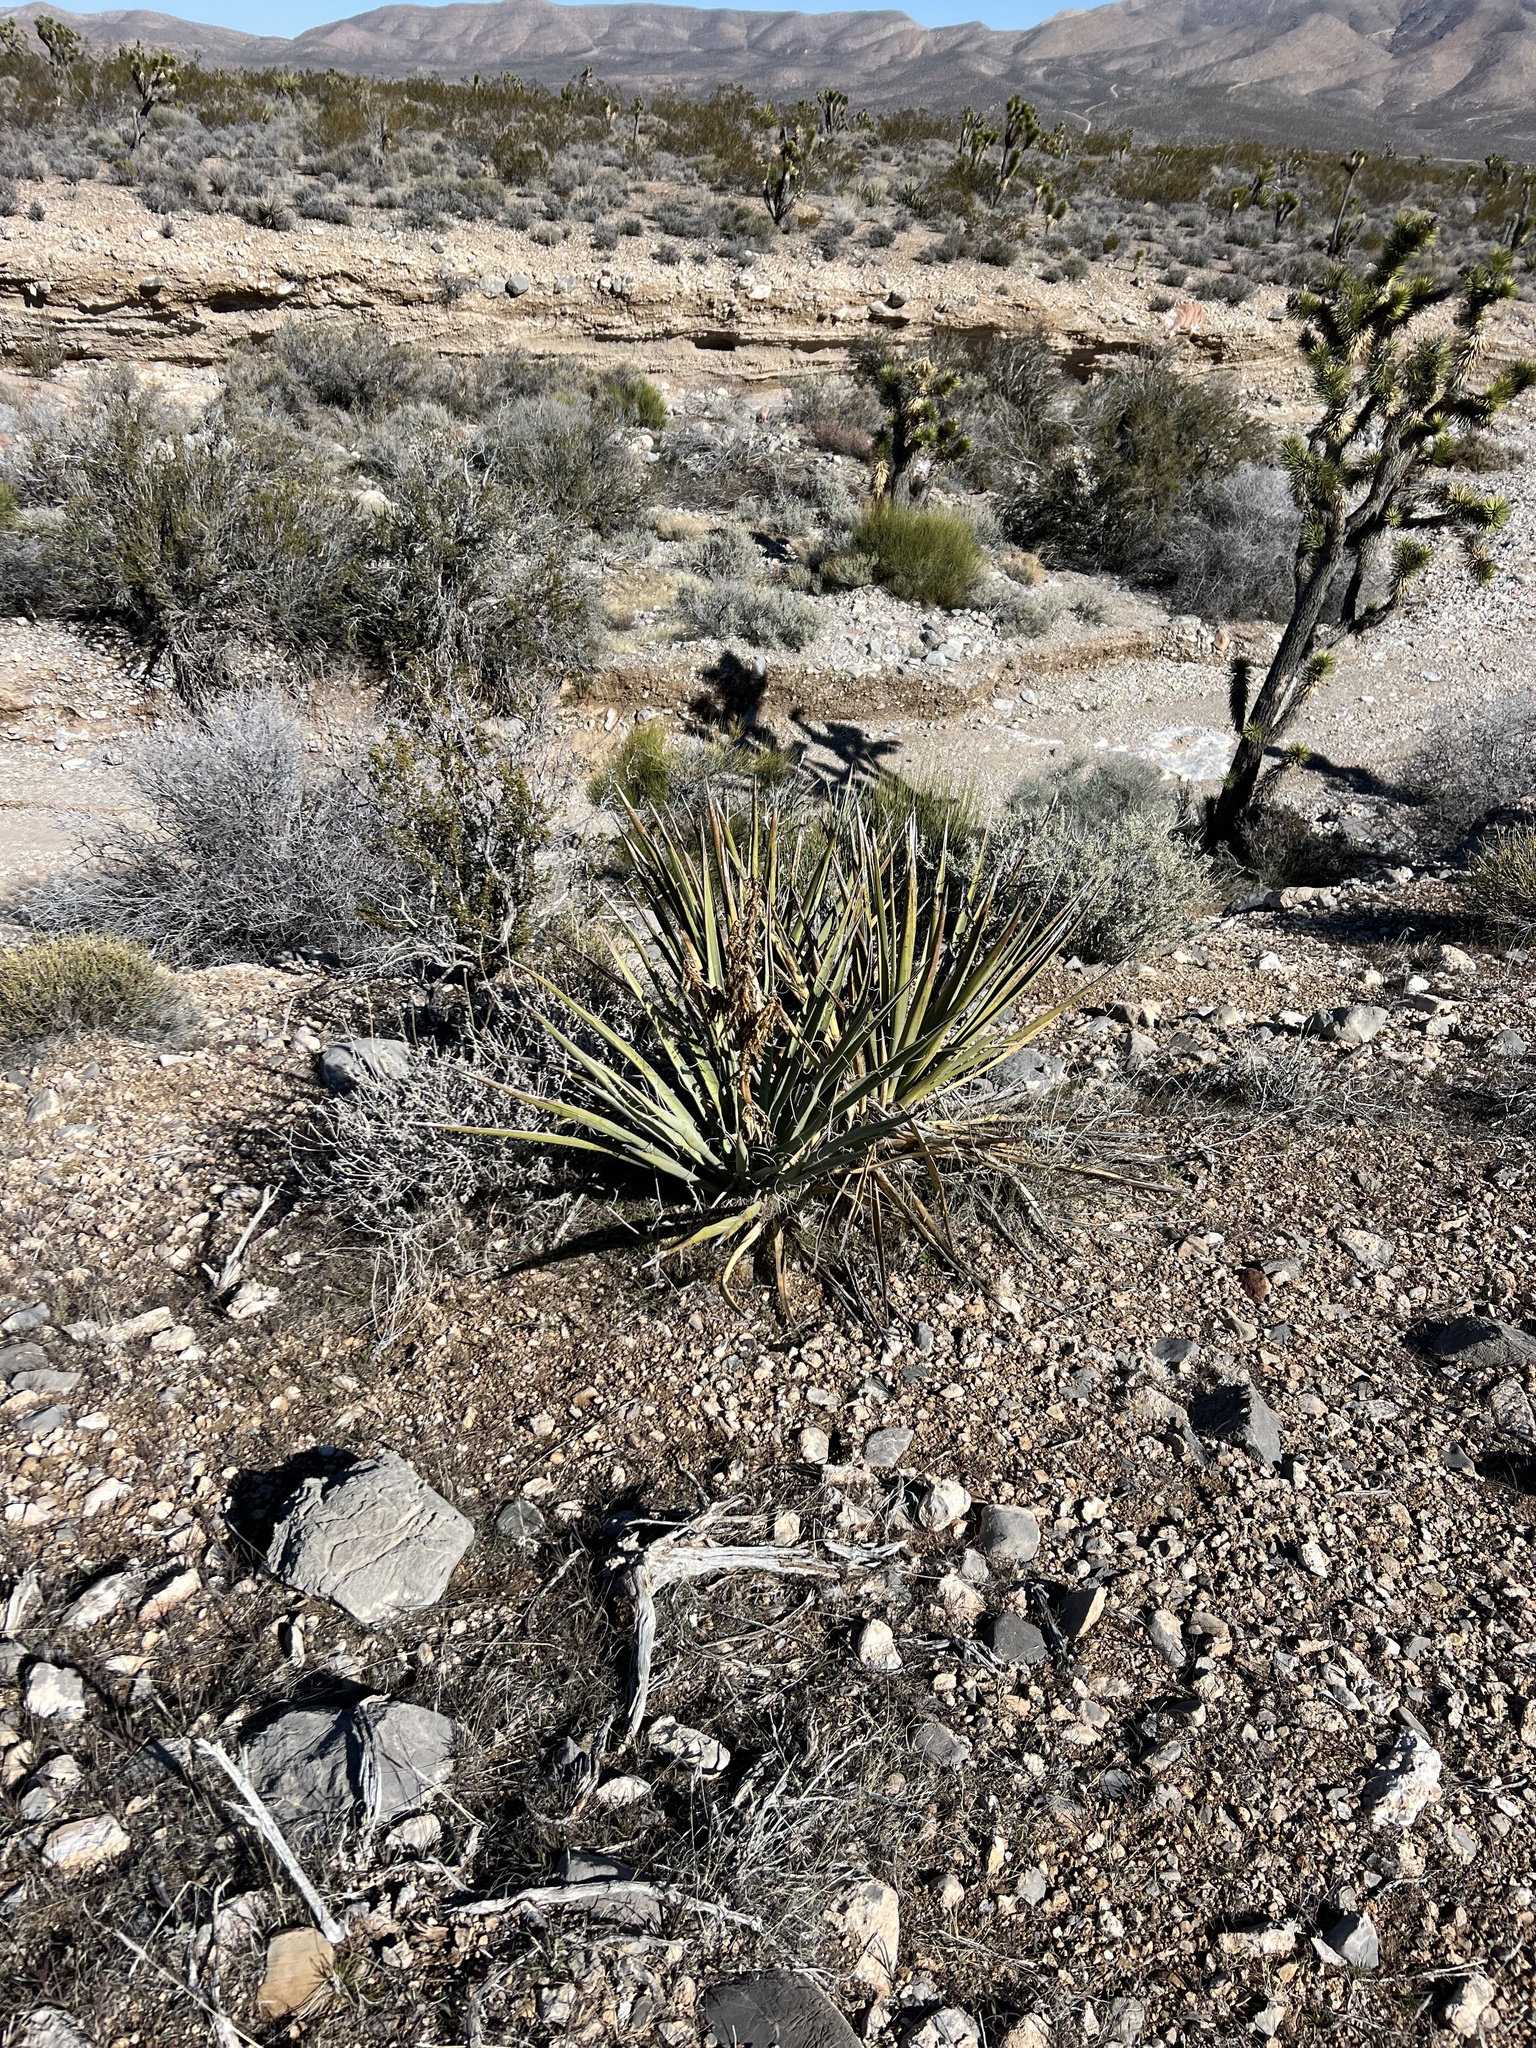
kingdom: Plantae
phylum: Tracheophyta
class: Liliopsida
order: Asparagales
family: Asparagaceae
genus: Yucca
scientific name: Yucca baccata
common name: Banana yucca
